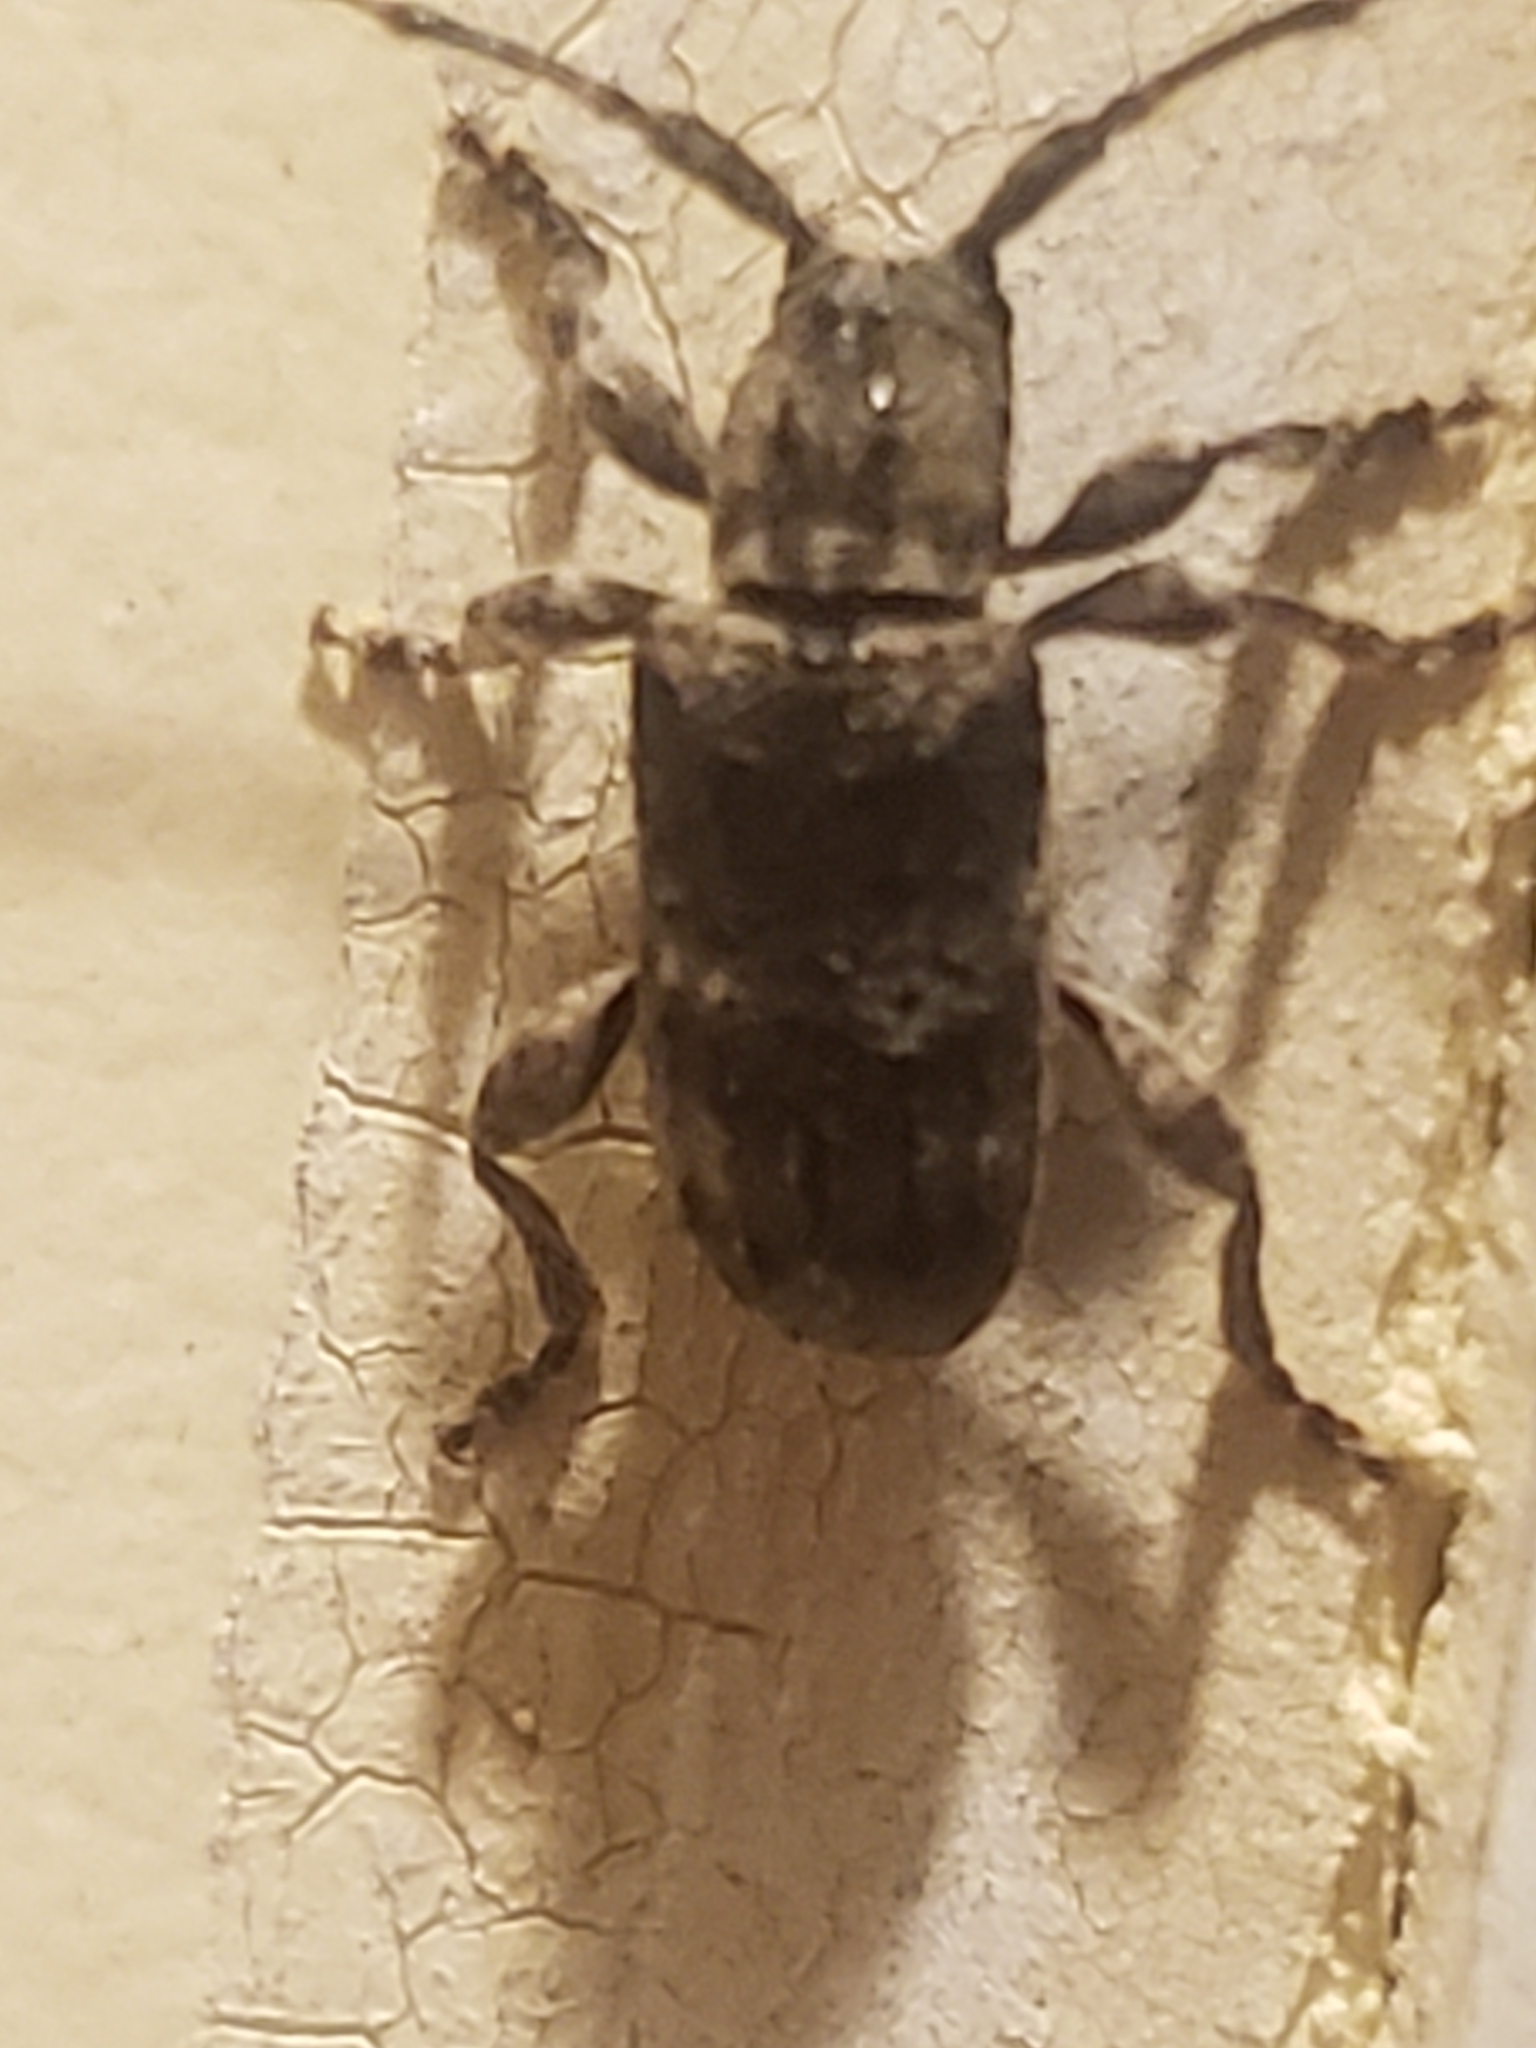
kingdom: Animalia
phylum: Arthropoda
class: Insecta
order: Coleoptera
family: Cerambycidae
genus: Ecyrus
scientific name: Ecyrus dasycerus
